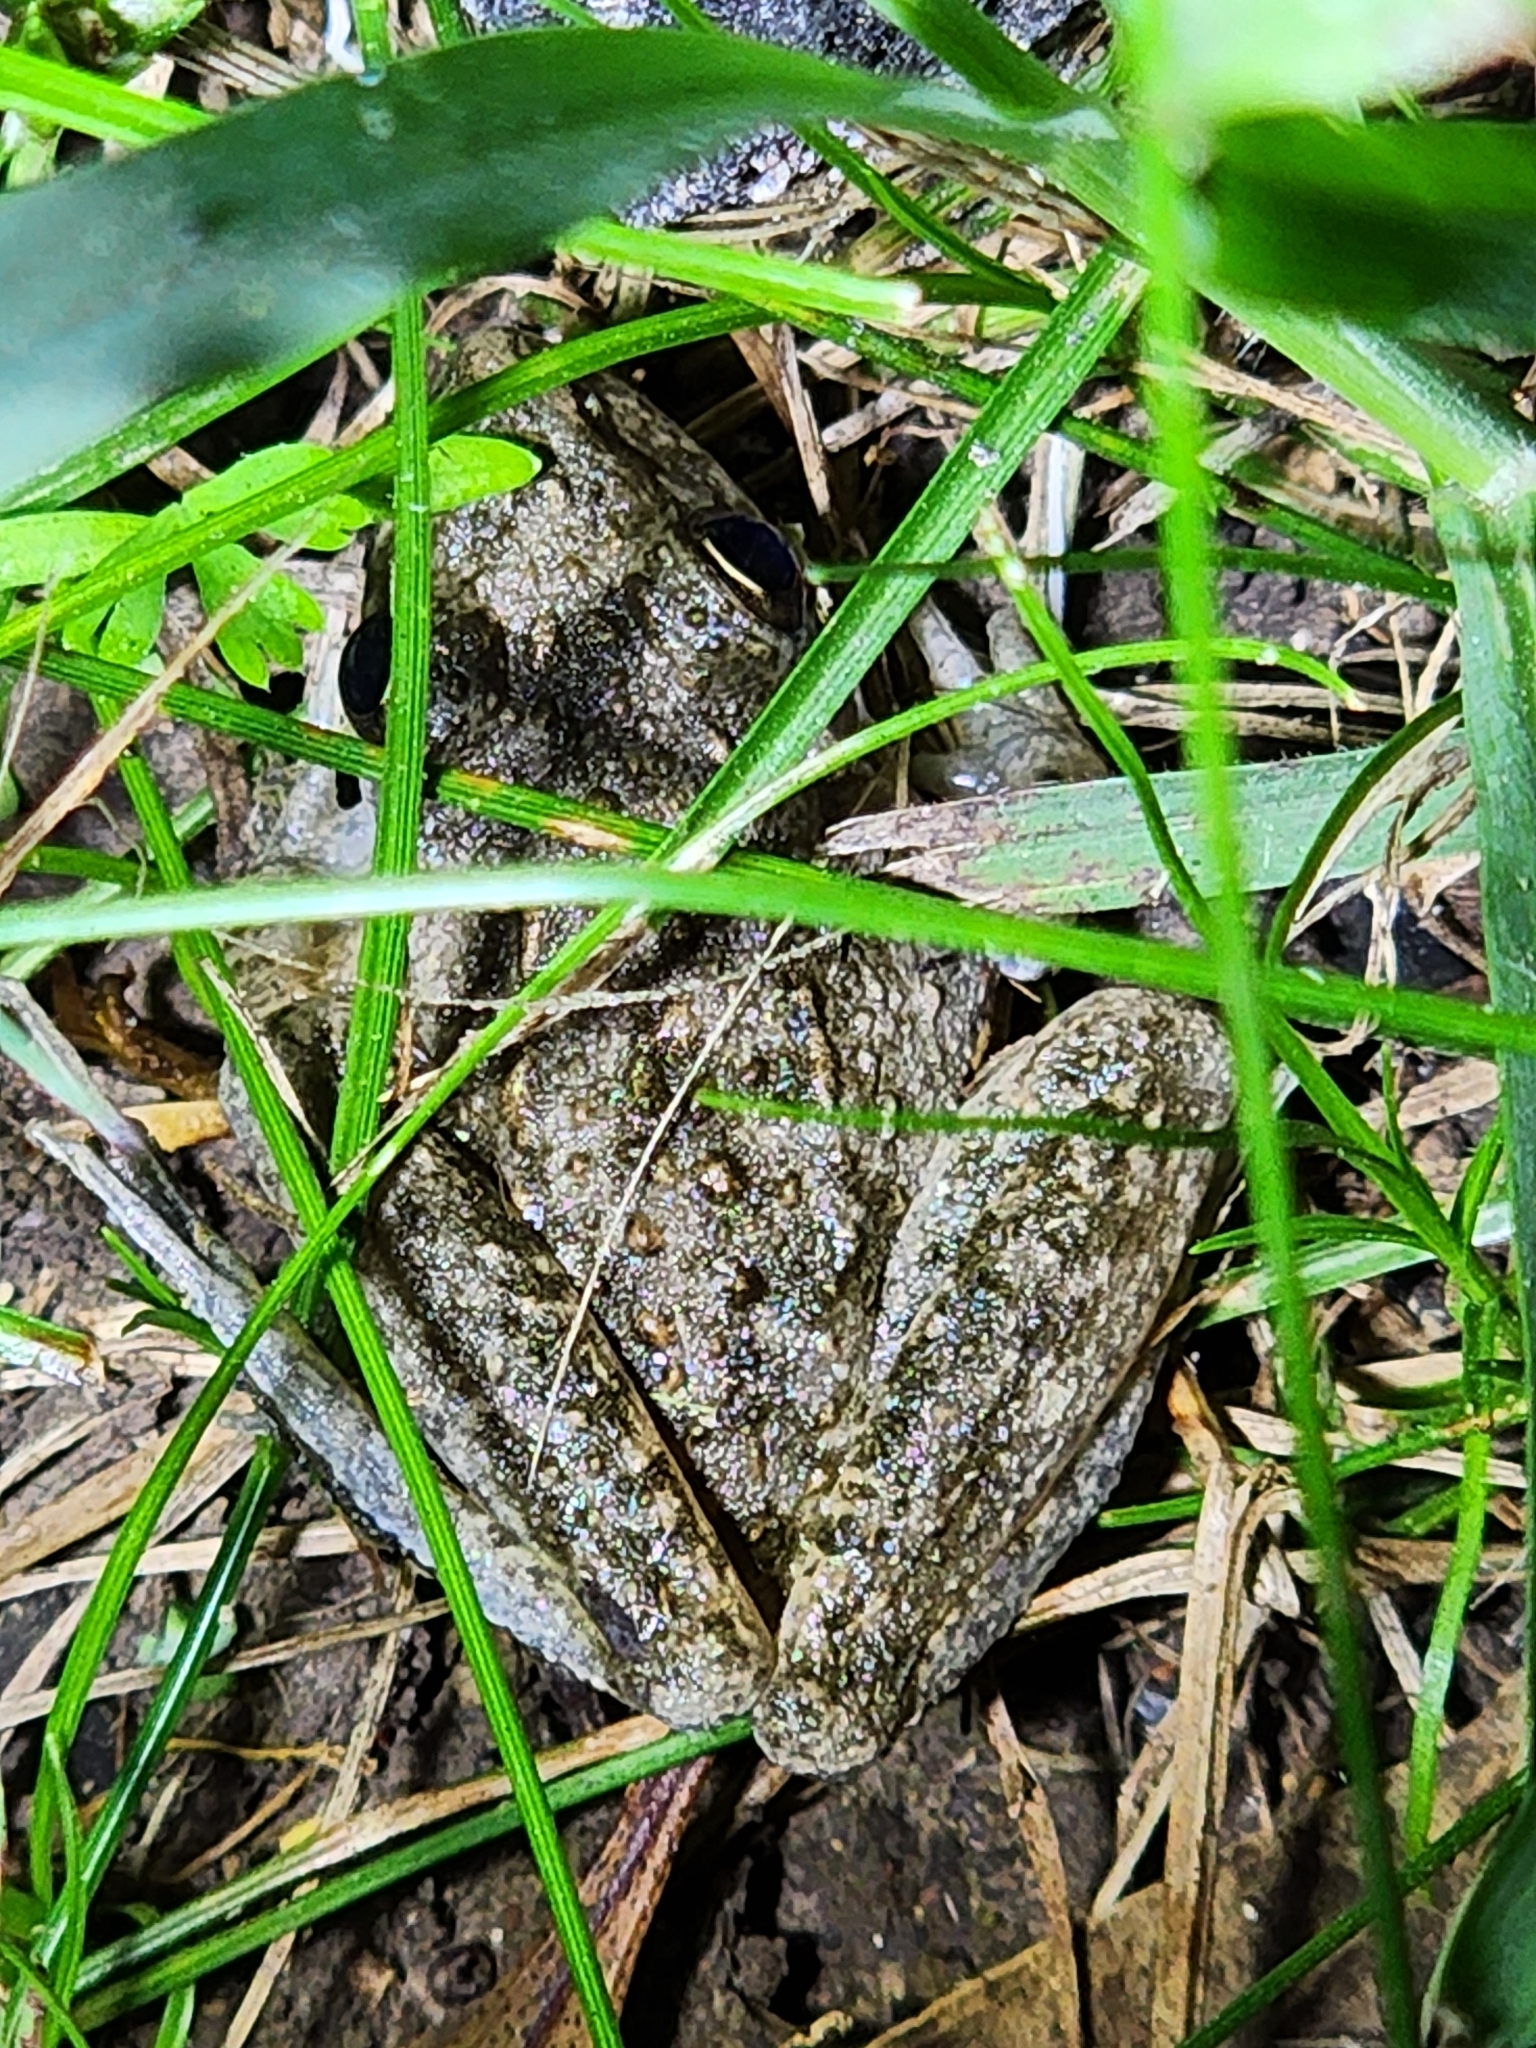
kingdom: Animalia
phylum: Chordata
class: Amphibia
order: Anura
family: Pelodryadidae
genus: Litoria
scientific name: Litoria inermis
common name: Bumpy rocket frog
